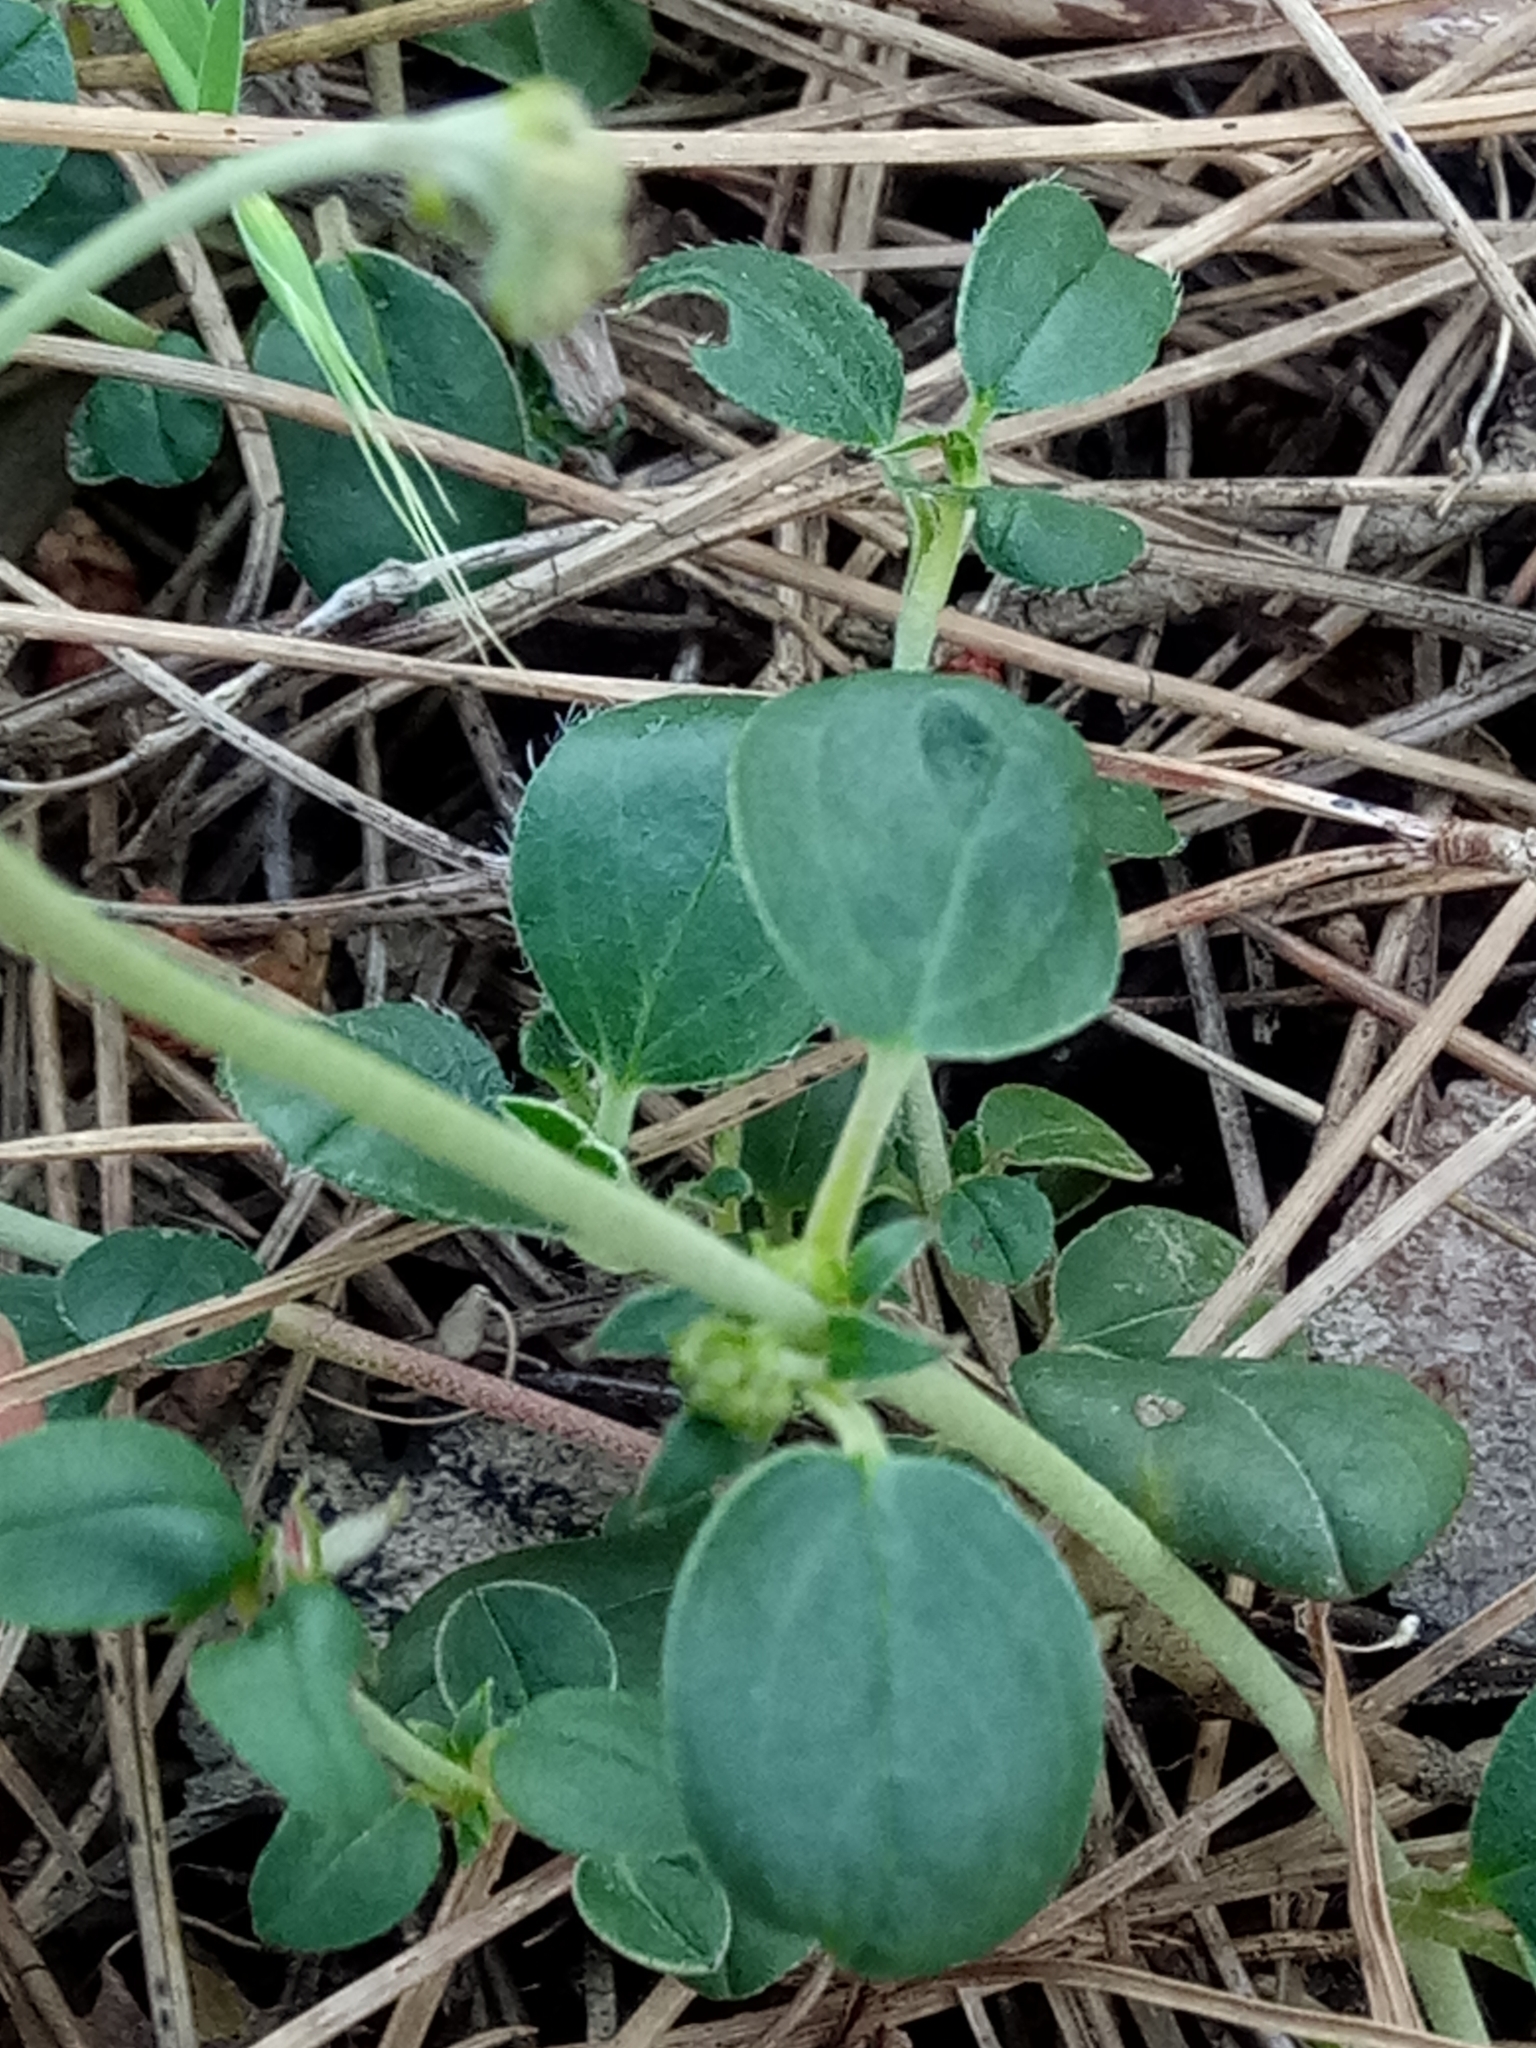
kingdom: Plantae
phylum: Tracheophyta
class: Magnoliopsida
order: Malvales
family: Cistaceae
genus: Helianthemum
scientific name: Helianthemum cinereum
